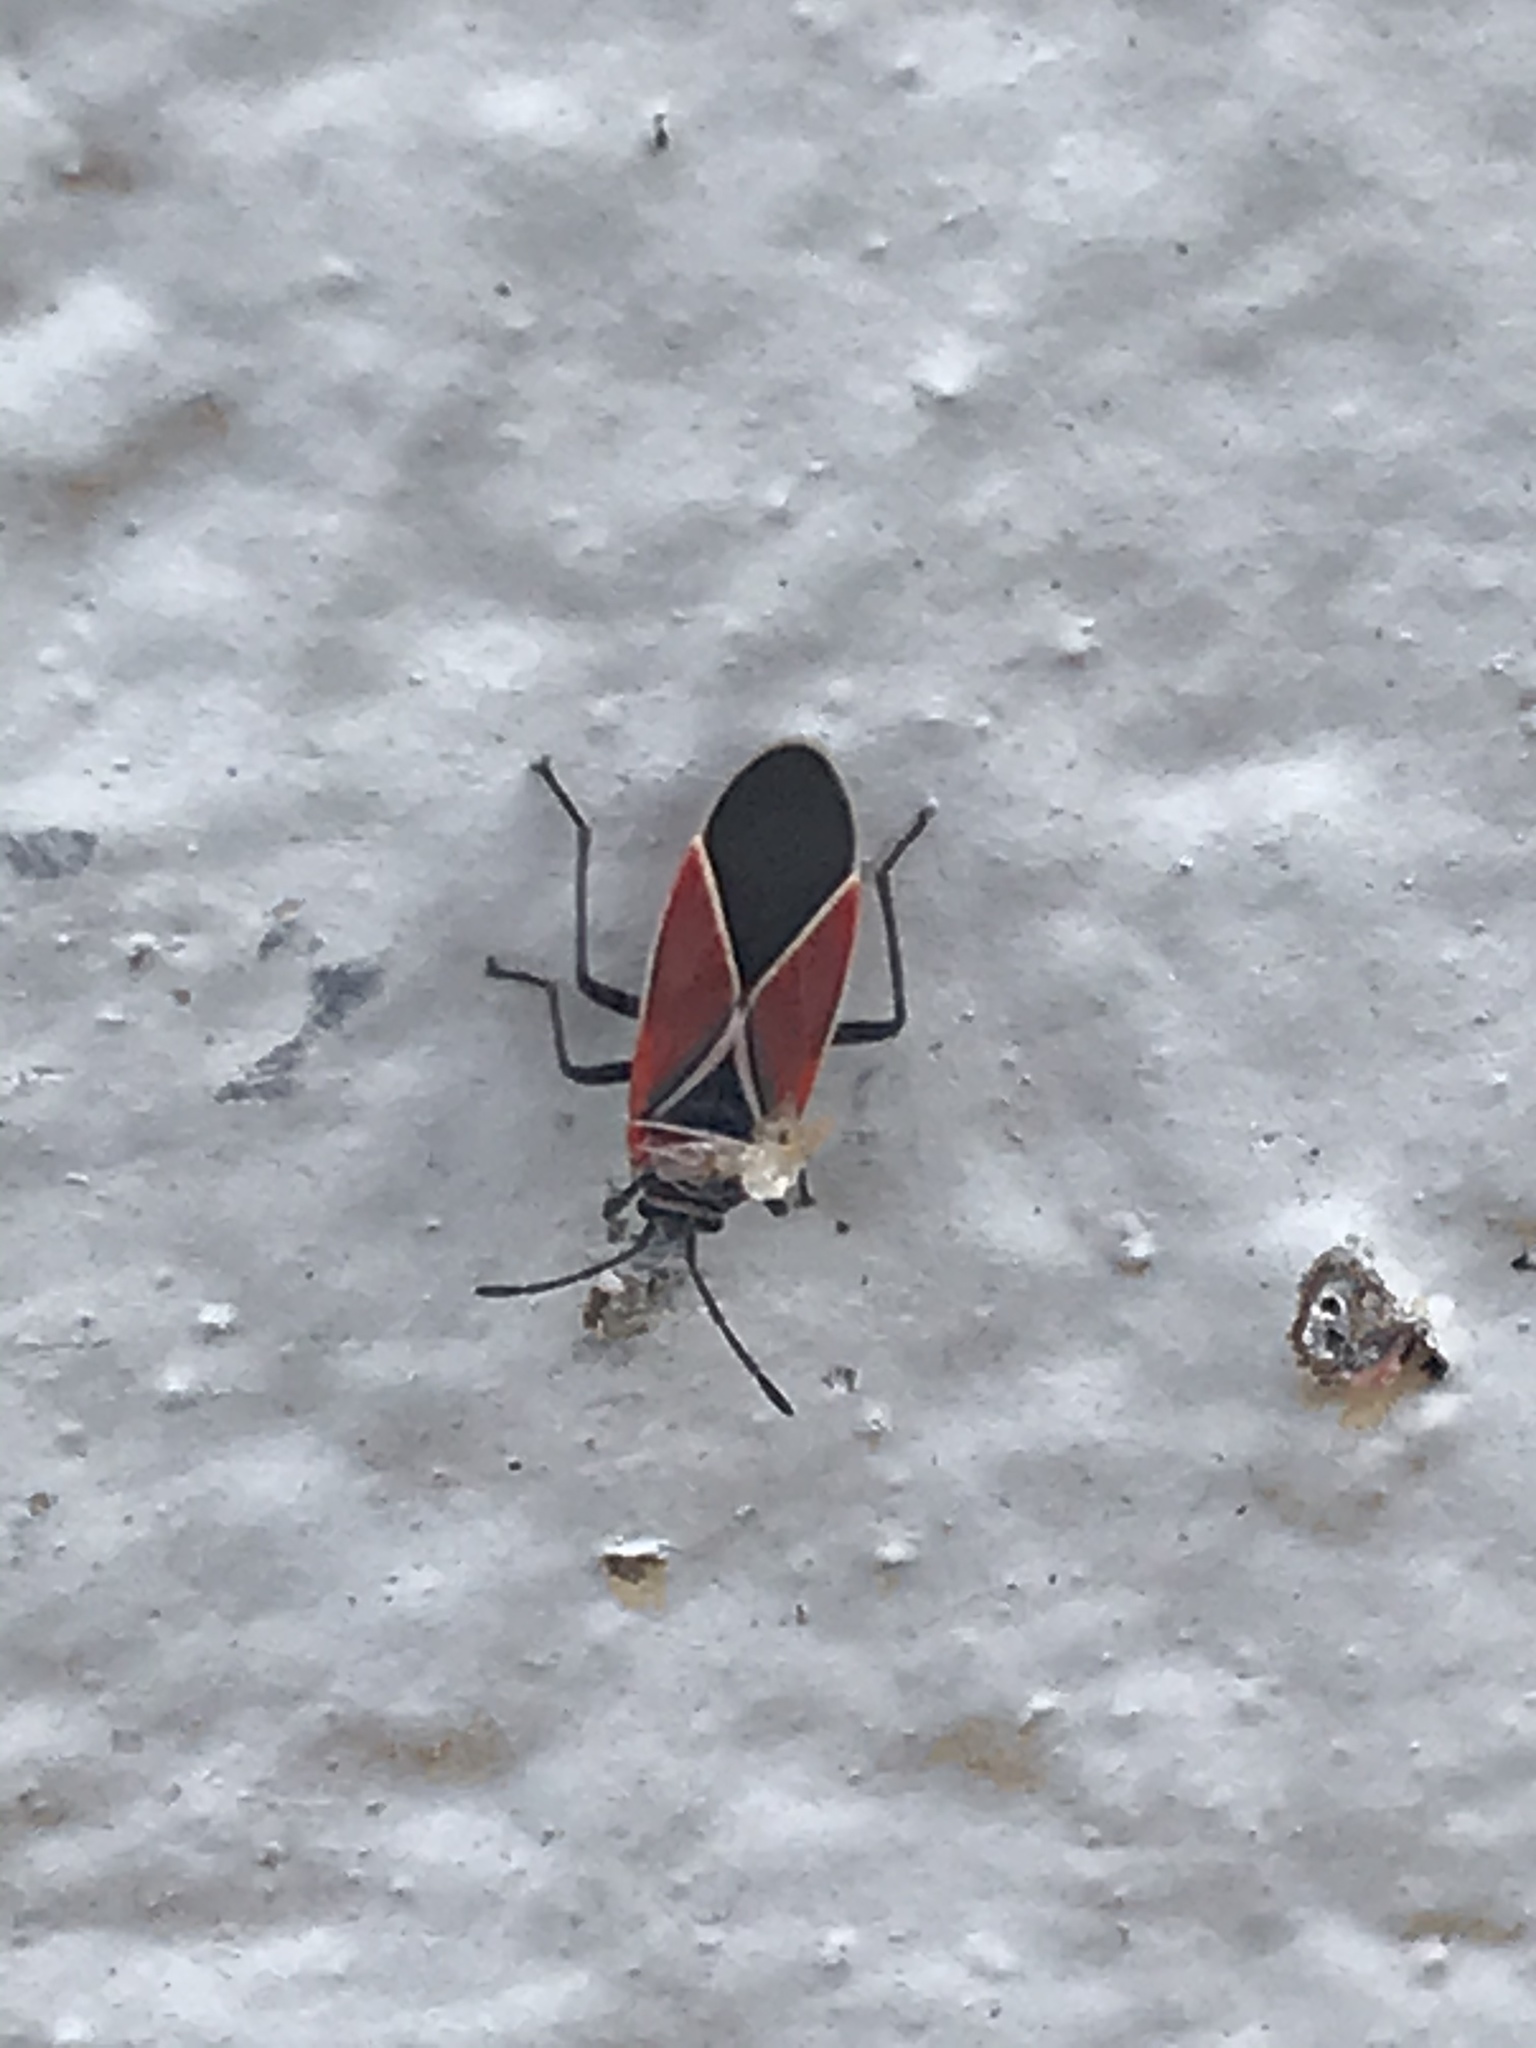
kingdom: Animalia
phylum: Arthropoda
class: Insecta
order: Hemiptera
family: Lygaeidae
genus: Neacoryphus
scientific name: Neacoryphus bicrucis
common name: Lygaeid bug
